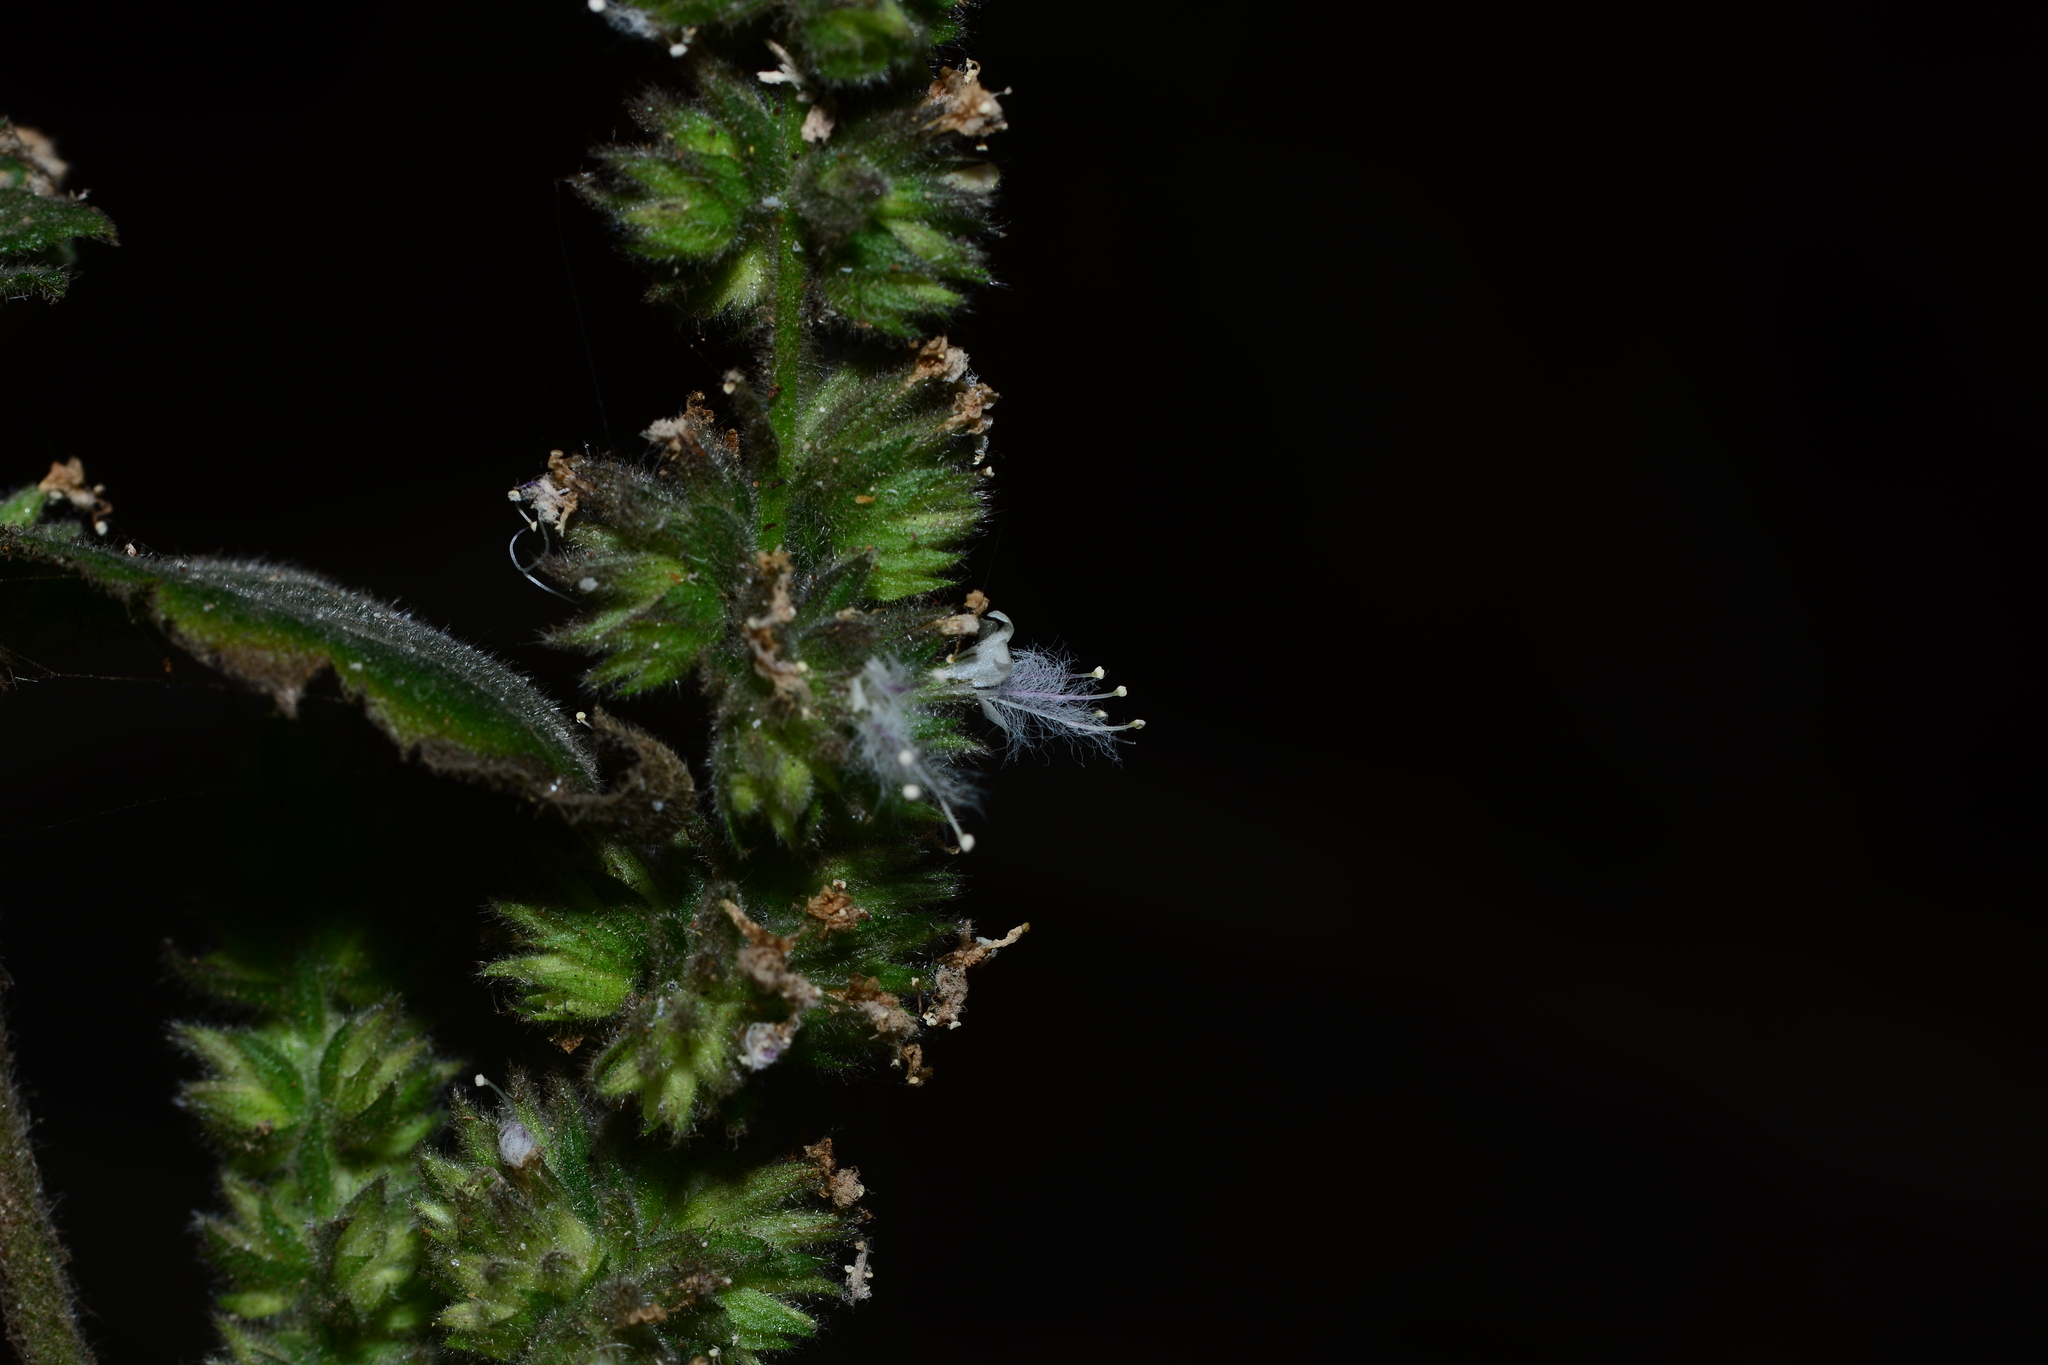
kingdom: Plantae
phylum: Tracheophyta
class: Magnoliopsida
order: Lamiales
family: Lamiaceae
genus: Pogostemon
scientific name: Pogostemon purpurascens
